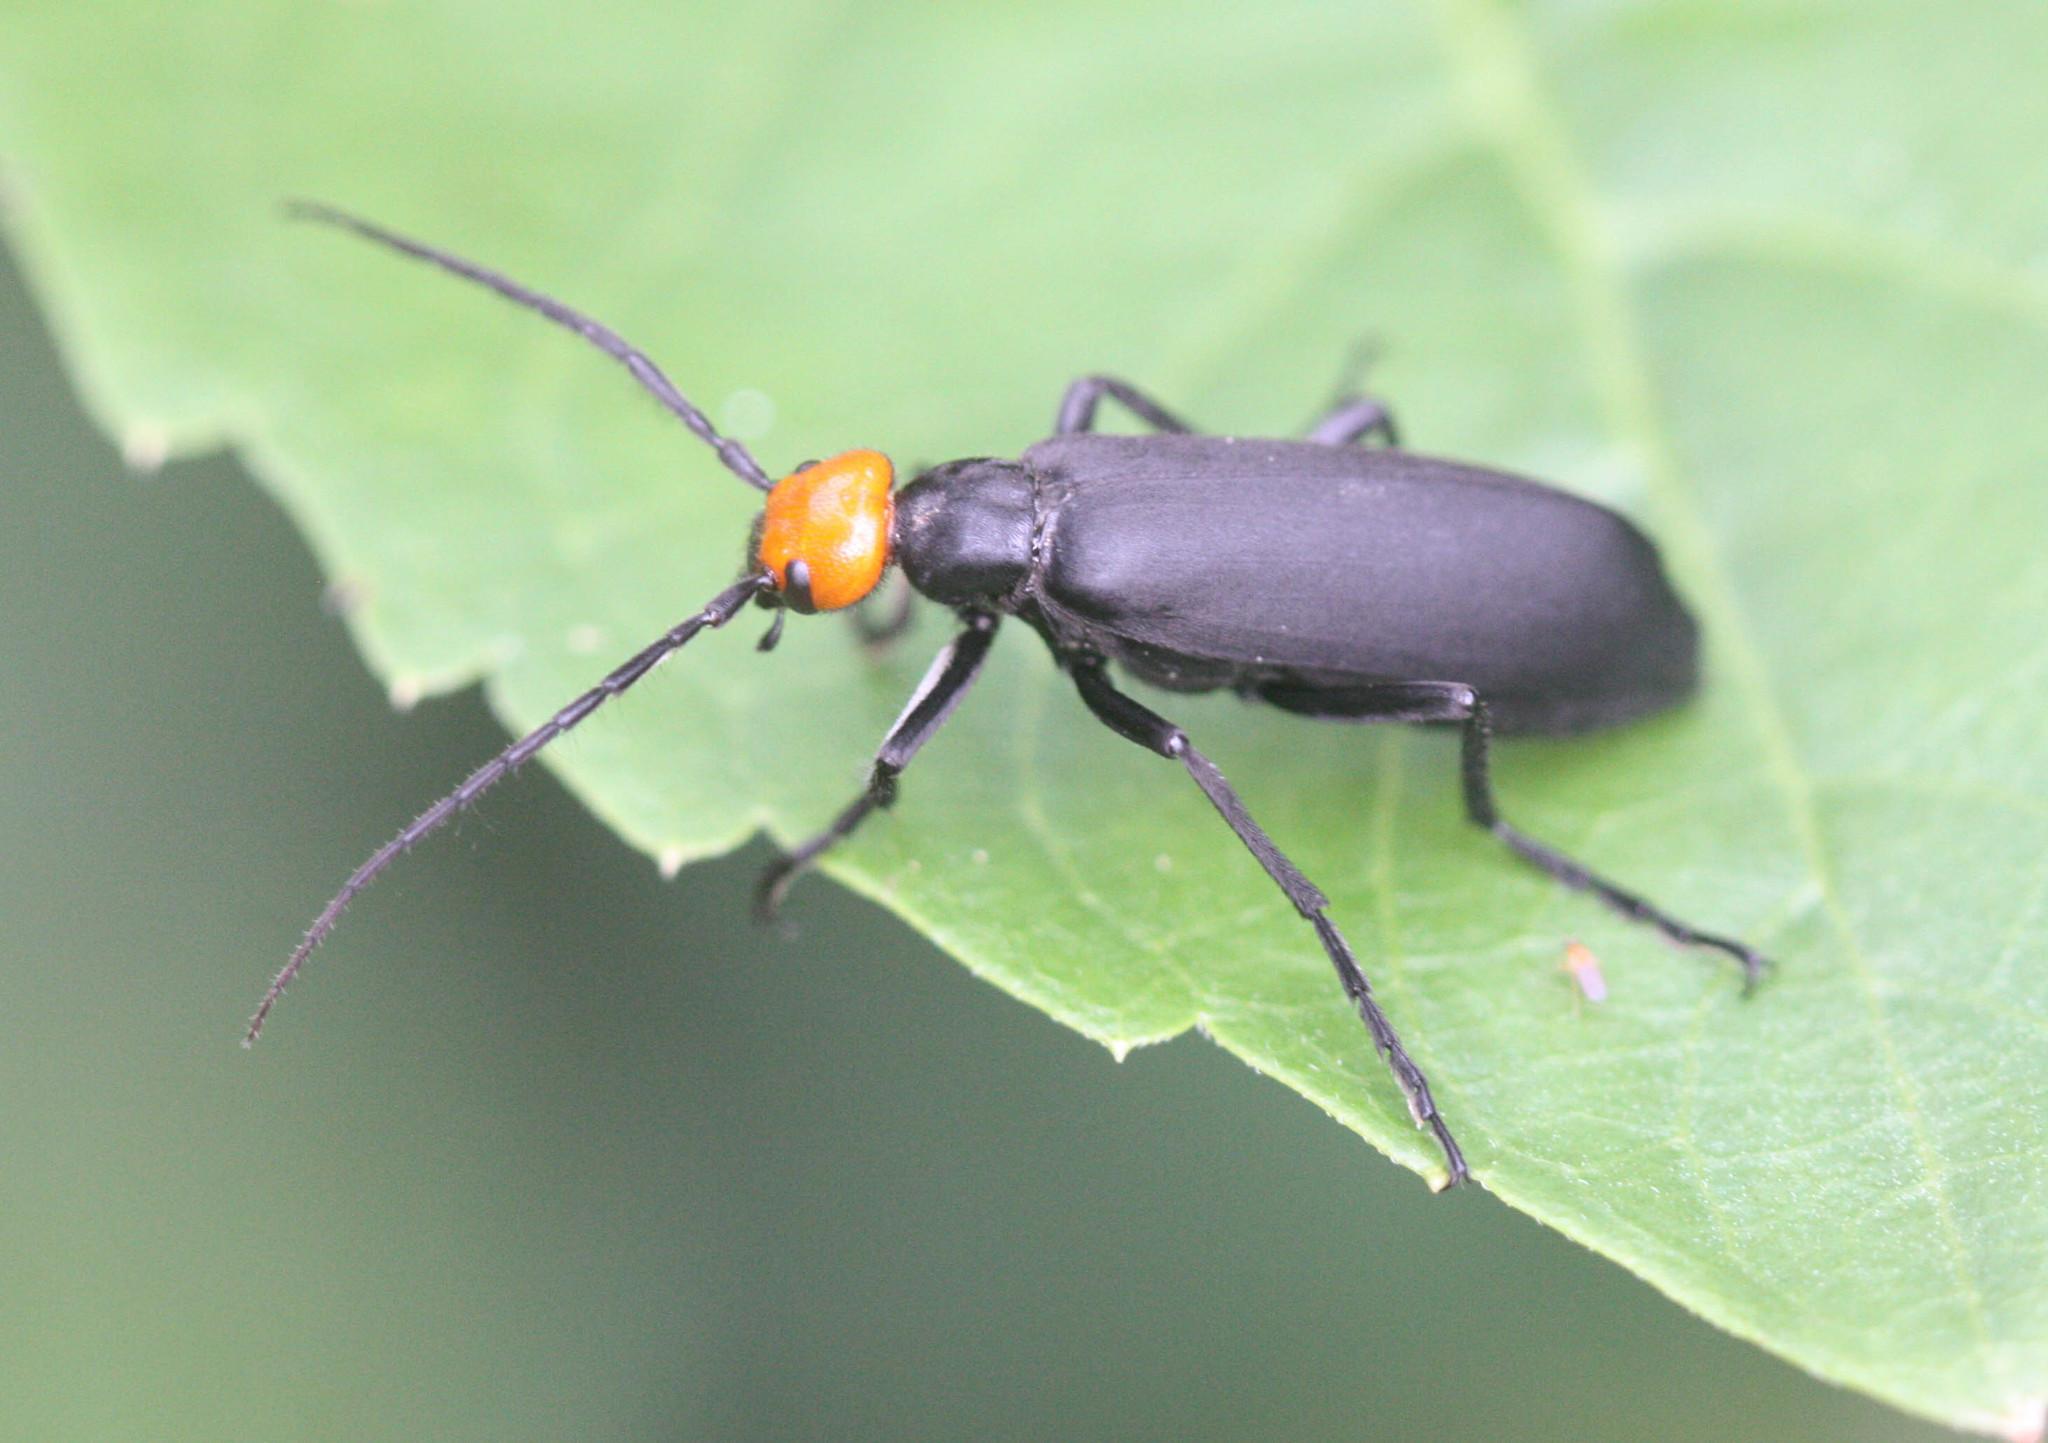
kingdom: Animalia
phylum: Arthropoda
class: Insecta
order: Coleoptera
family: Meloidae
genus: Epicauta
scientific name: Epicauta
